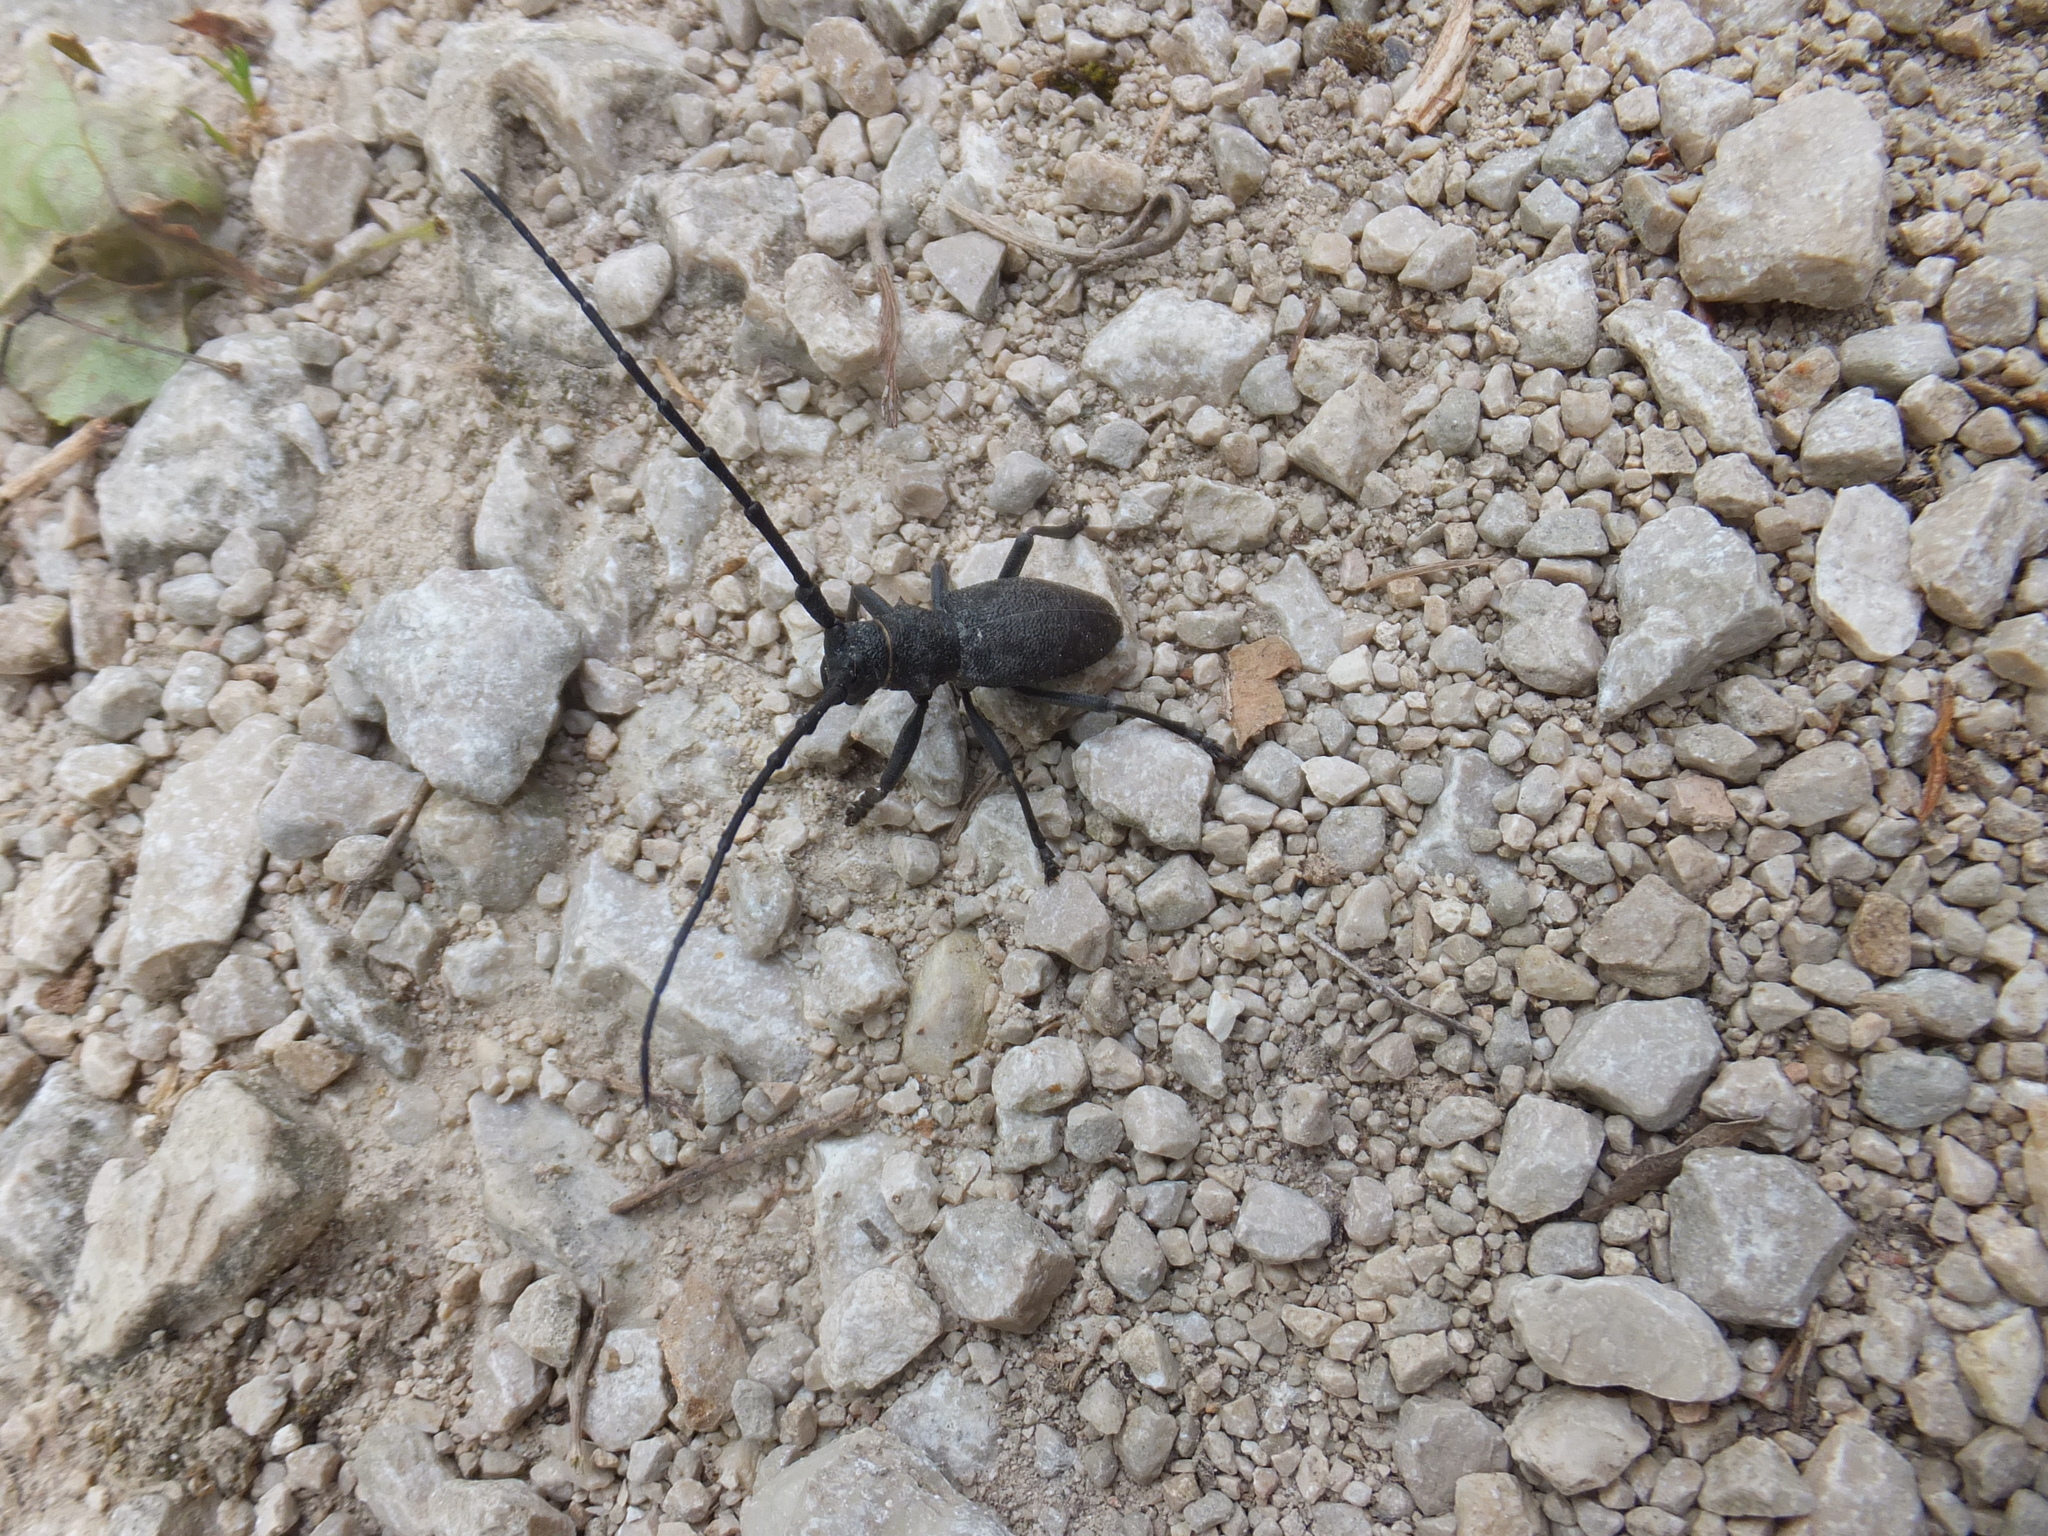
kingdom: Animalia
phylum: Arthropoda
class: Insecta
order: Coleoptera
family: Cerambycidae
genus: Morimus
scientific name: Morimus asper
